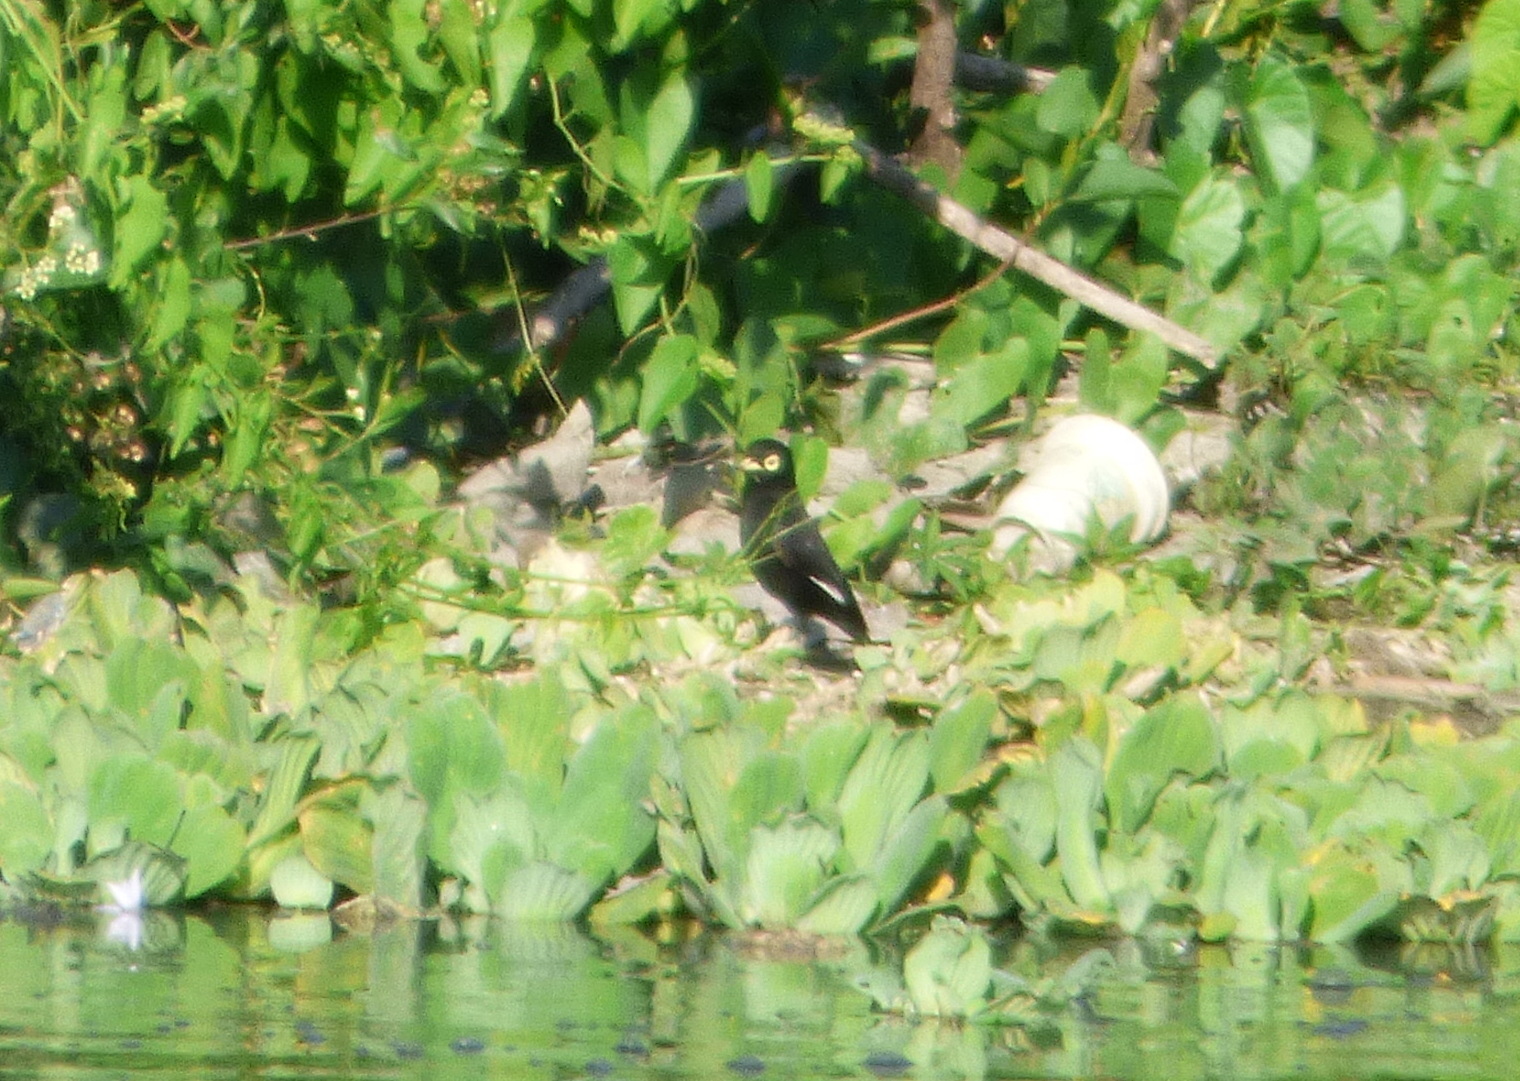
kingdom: Animalia
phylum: Chordata
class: Aves
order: Passeriformes
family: Tyrannidae
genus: Hymenops
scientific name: Hymenops perspicillatus
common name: Spectacled tyrant
